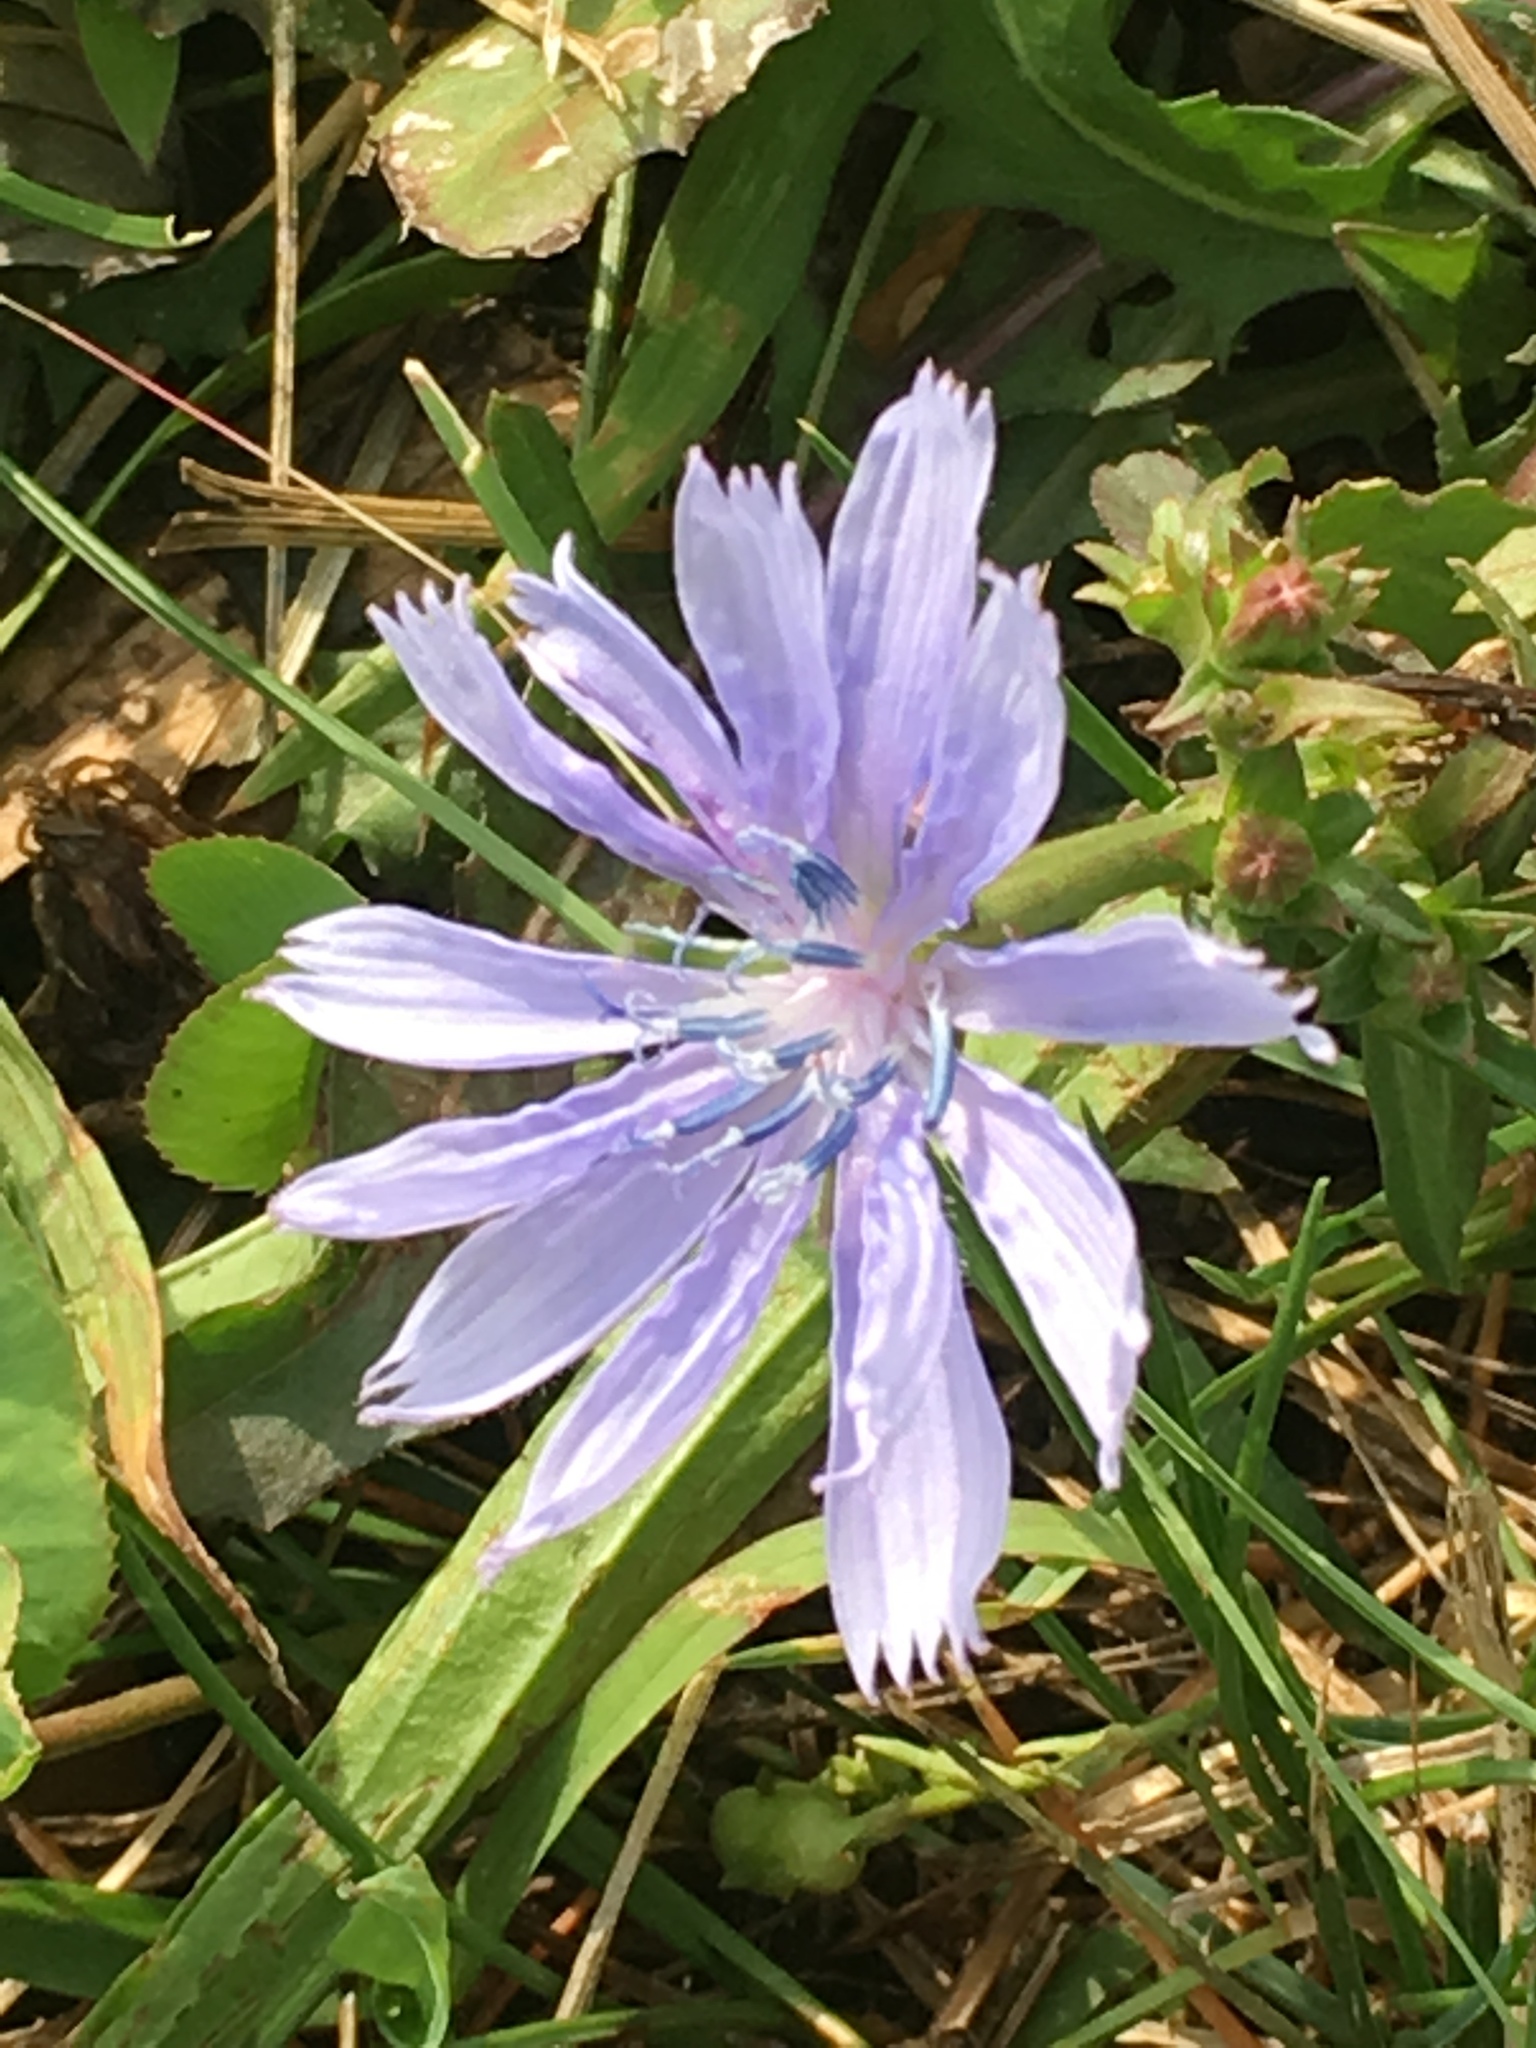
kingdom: Plantae
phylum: Tracheophyta
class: Magnoliopsida
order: Asterales
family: Asteraceae
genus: Cichorium
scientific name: Cichorium intybus
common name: Chicory
